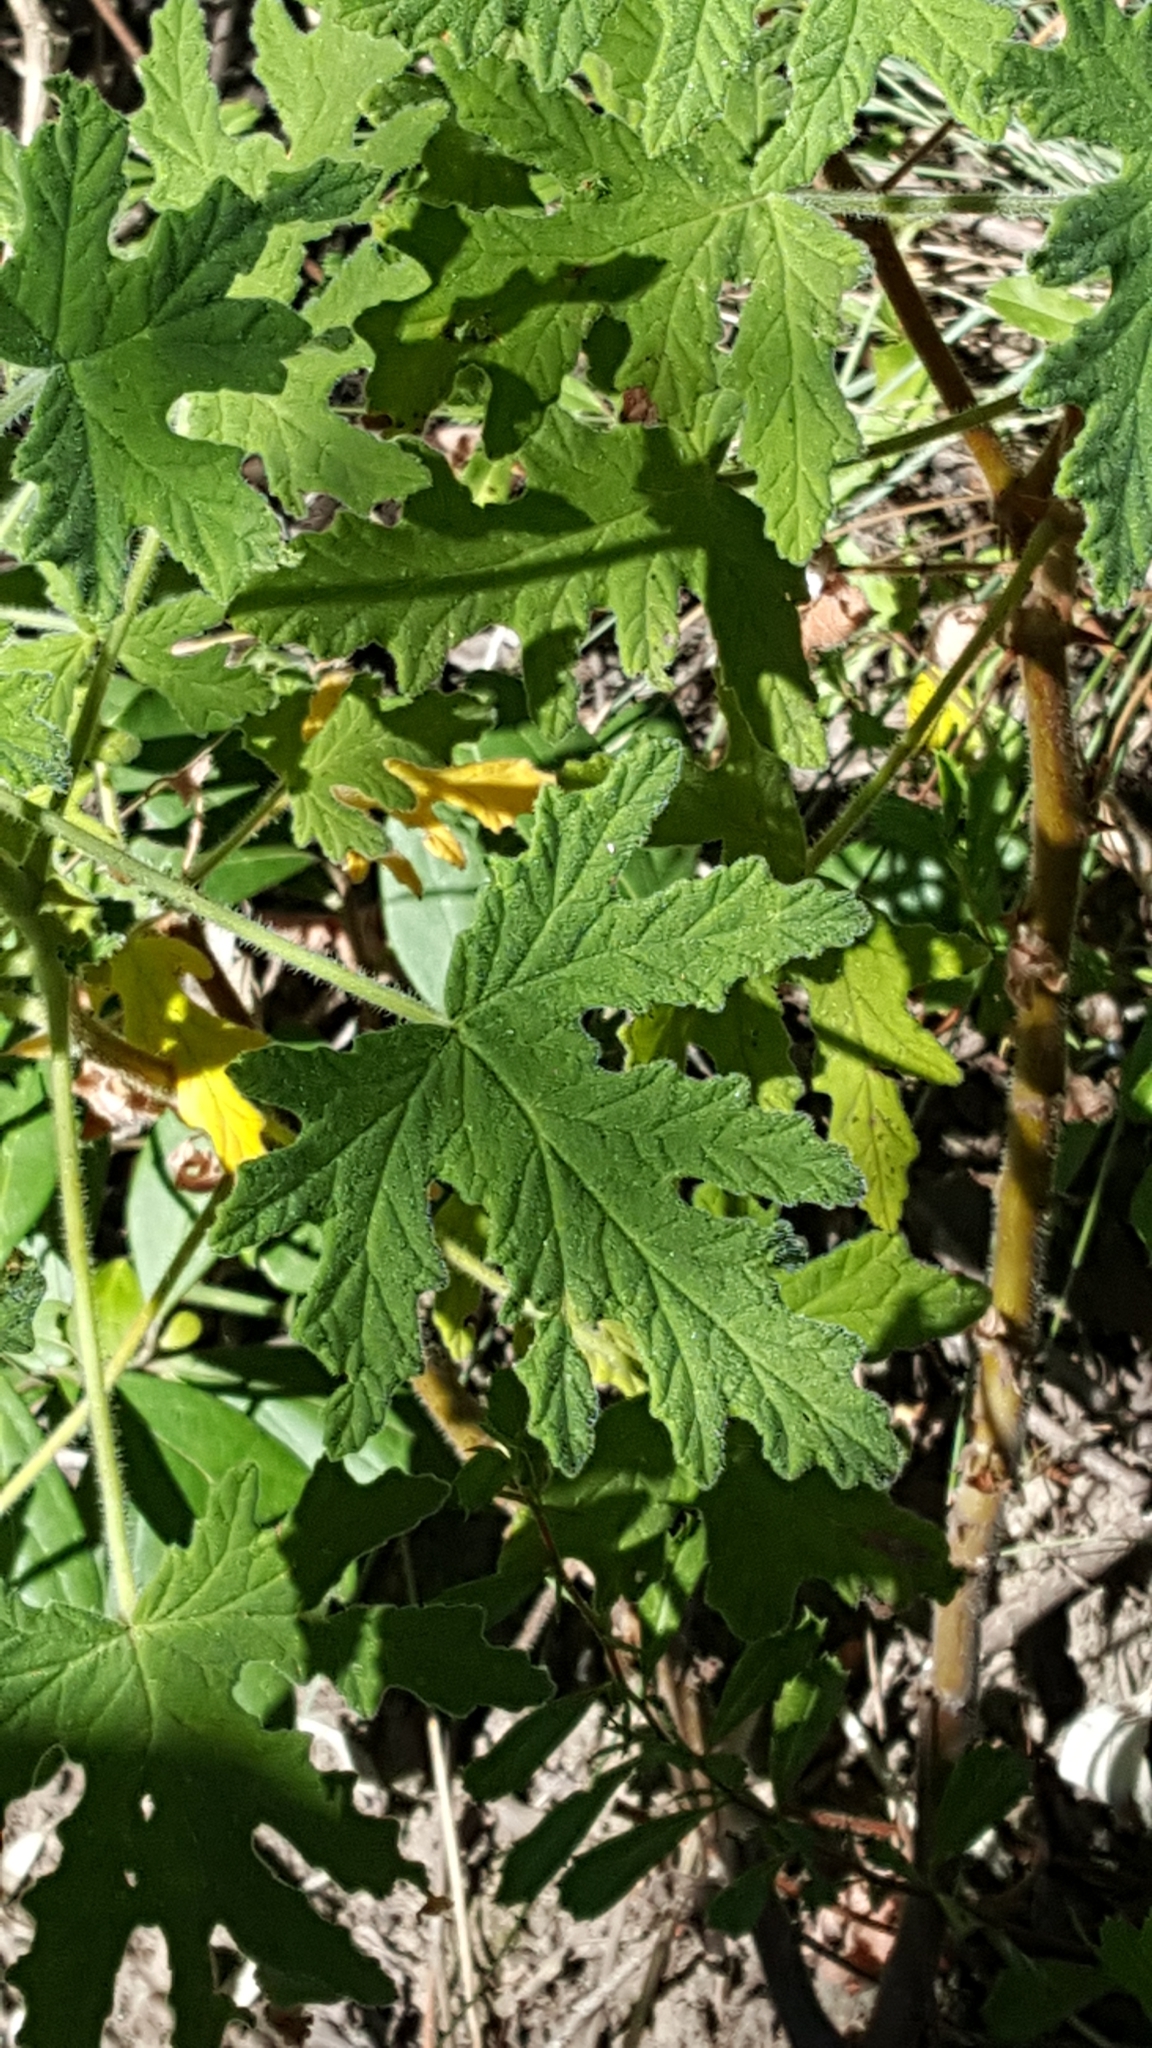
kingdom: Plantae
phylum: Tracheophyta
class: Magnoliopsida
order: Geraniales
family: Geraniaceae
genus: Pelargonium
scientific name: Pelargonium graveolens
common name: Rose-scent geranium
